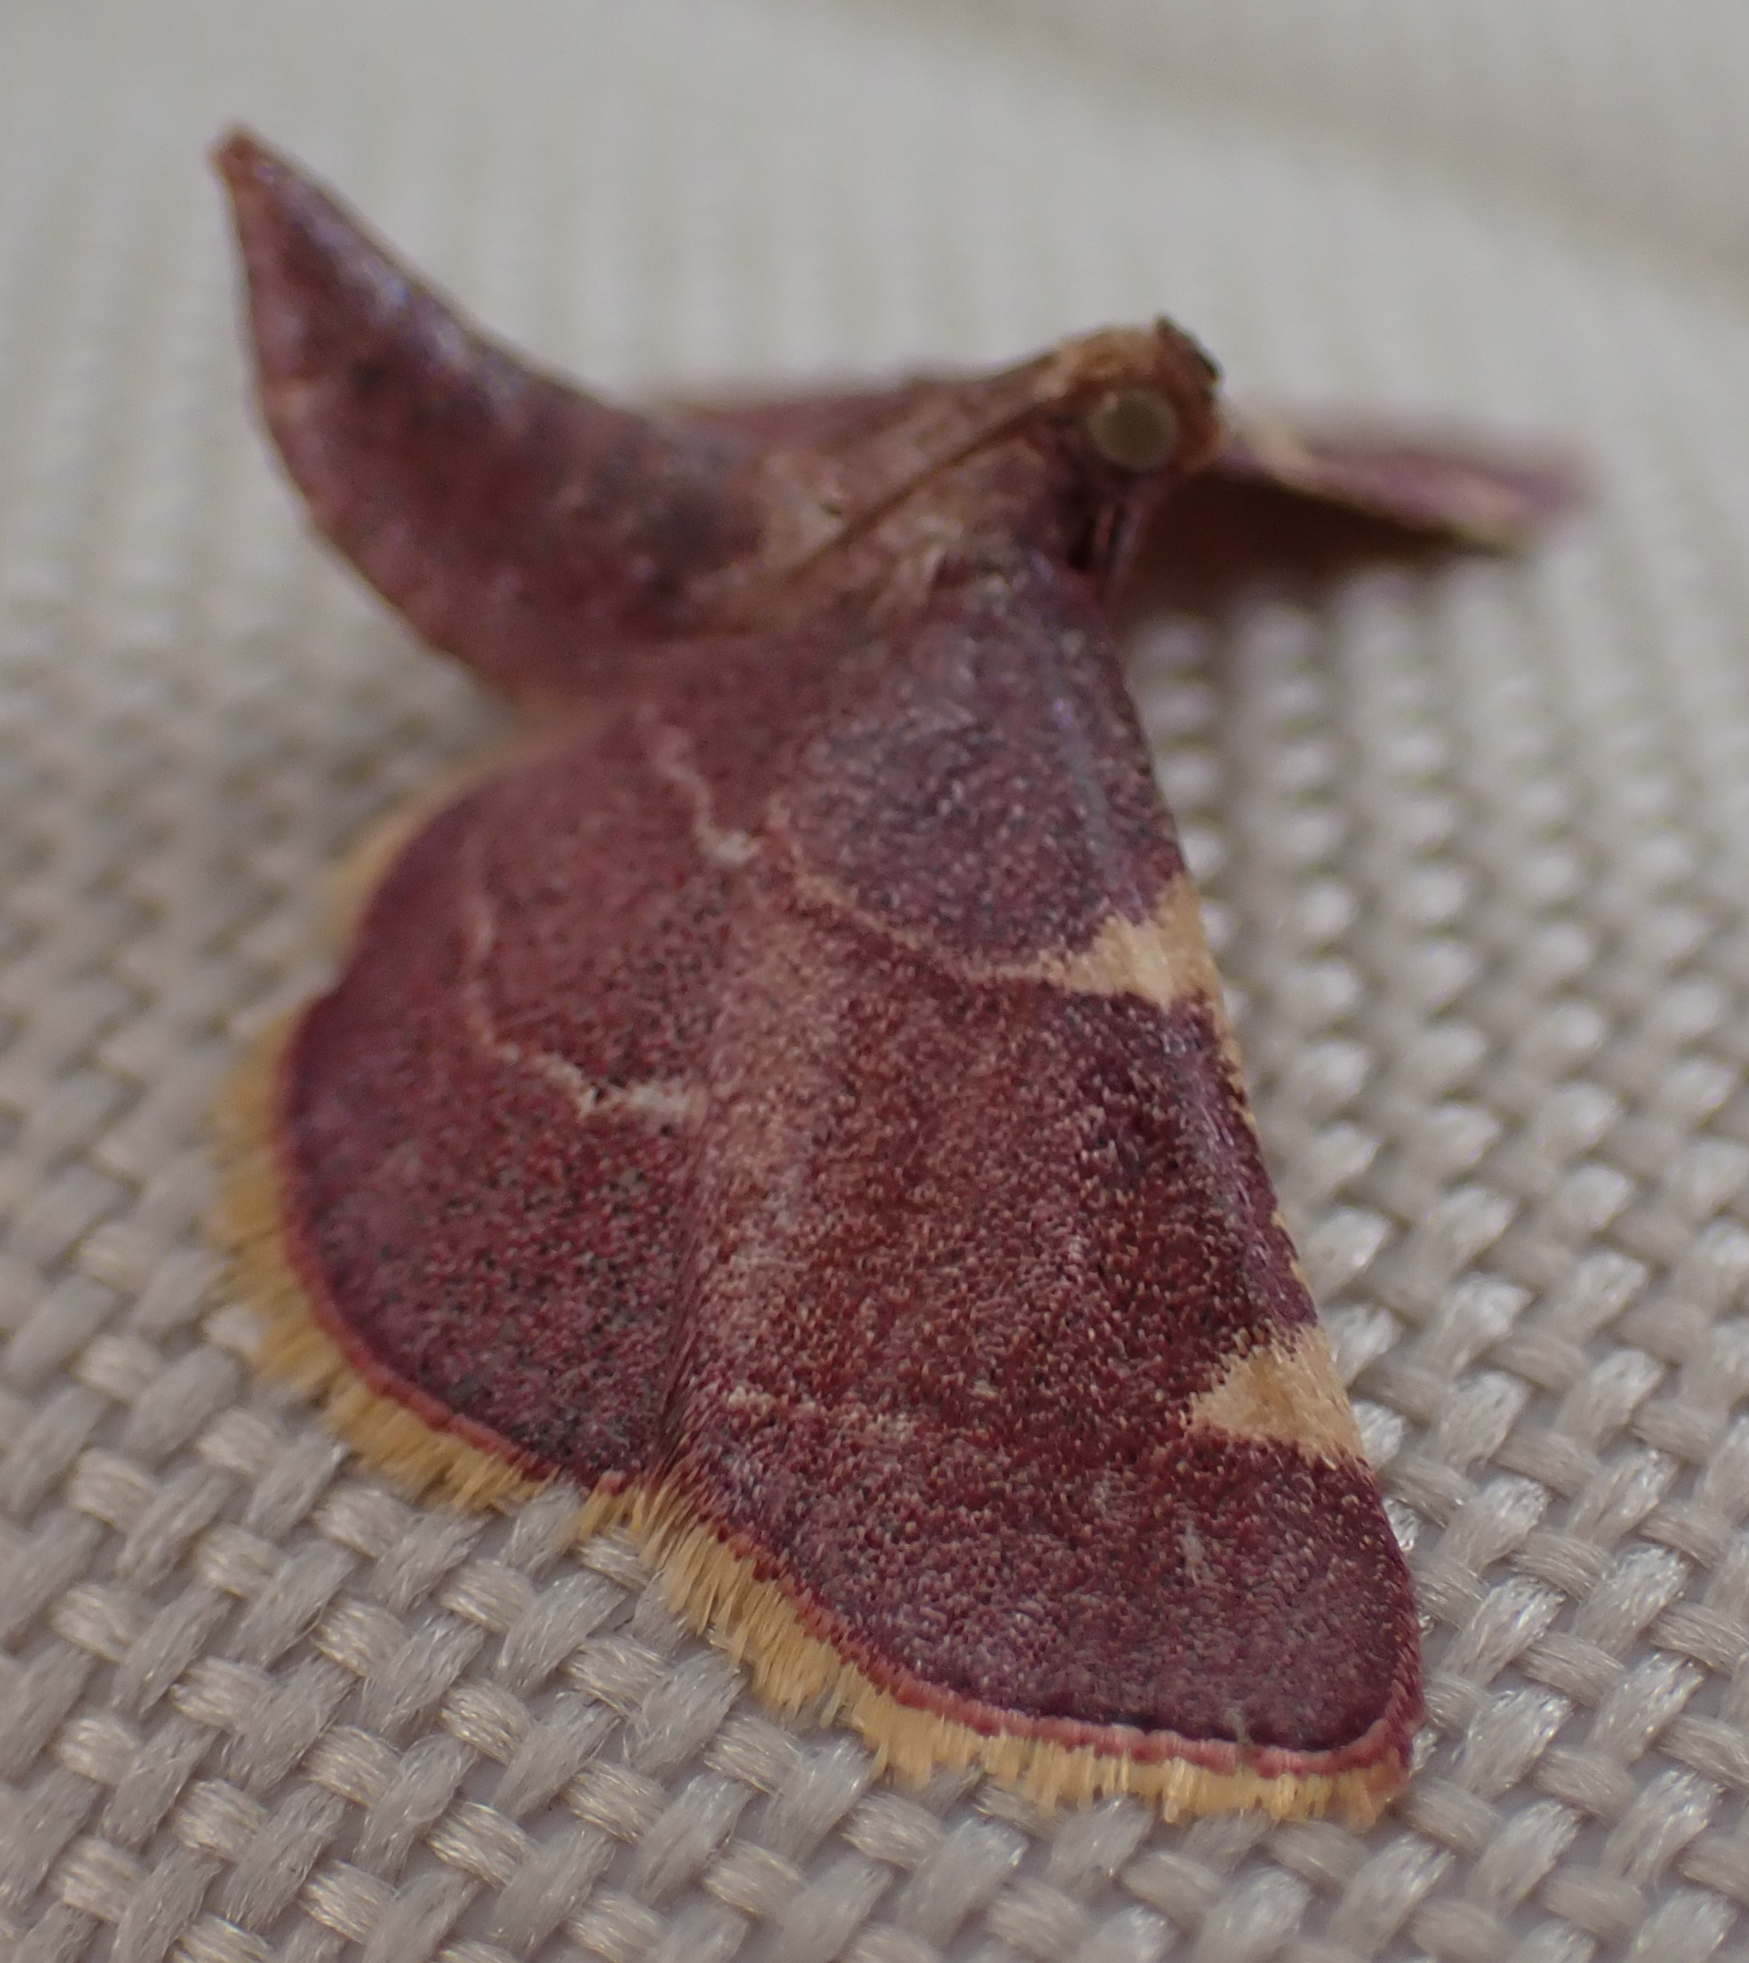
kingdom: Animalia
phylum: Arthropoda
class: Insecta
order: Lepidoptera
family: Pyralidae
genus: Hypsopygia
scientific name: Hypsopygia olinalis
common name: Yellow-fringed dolichomia moth
